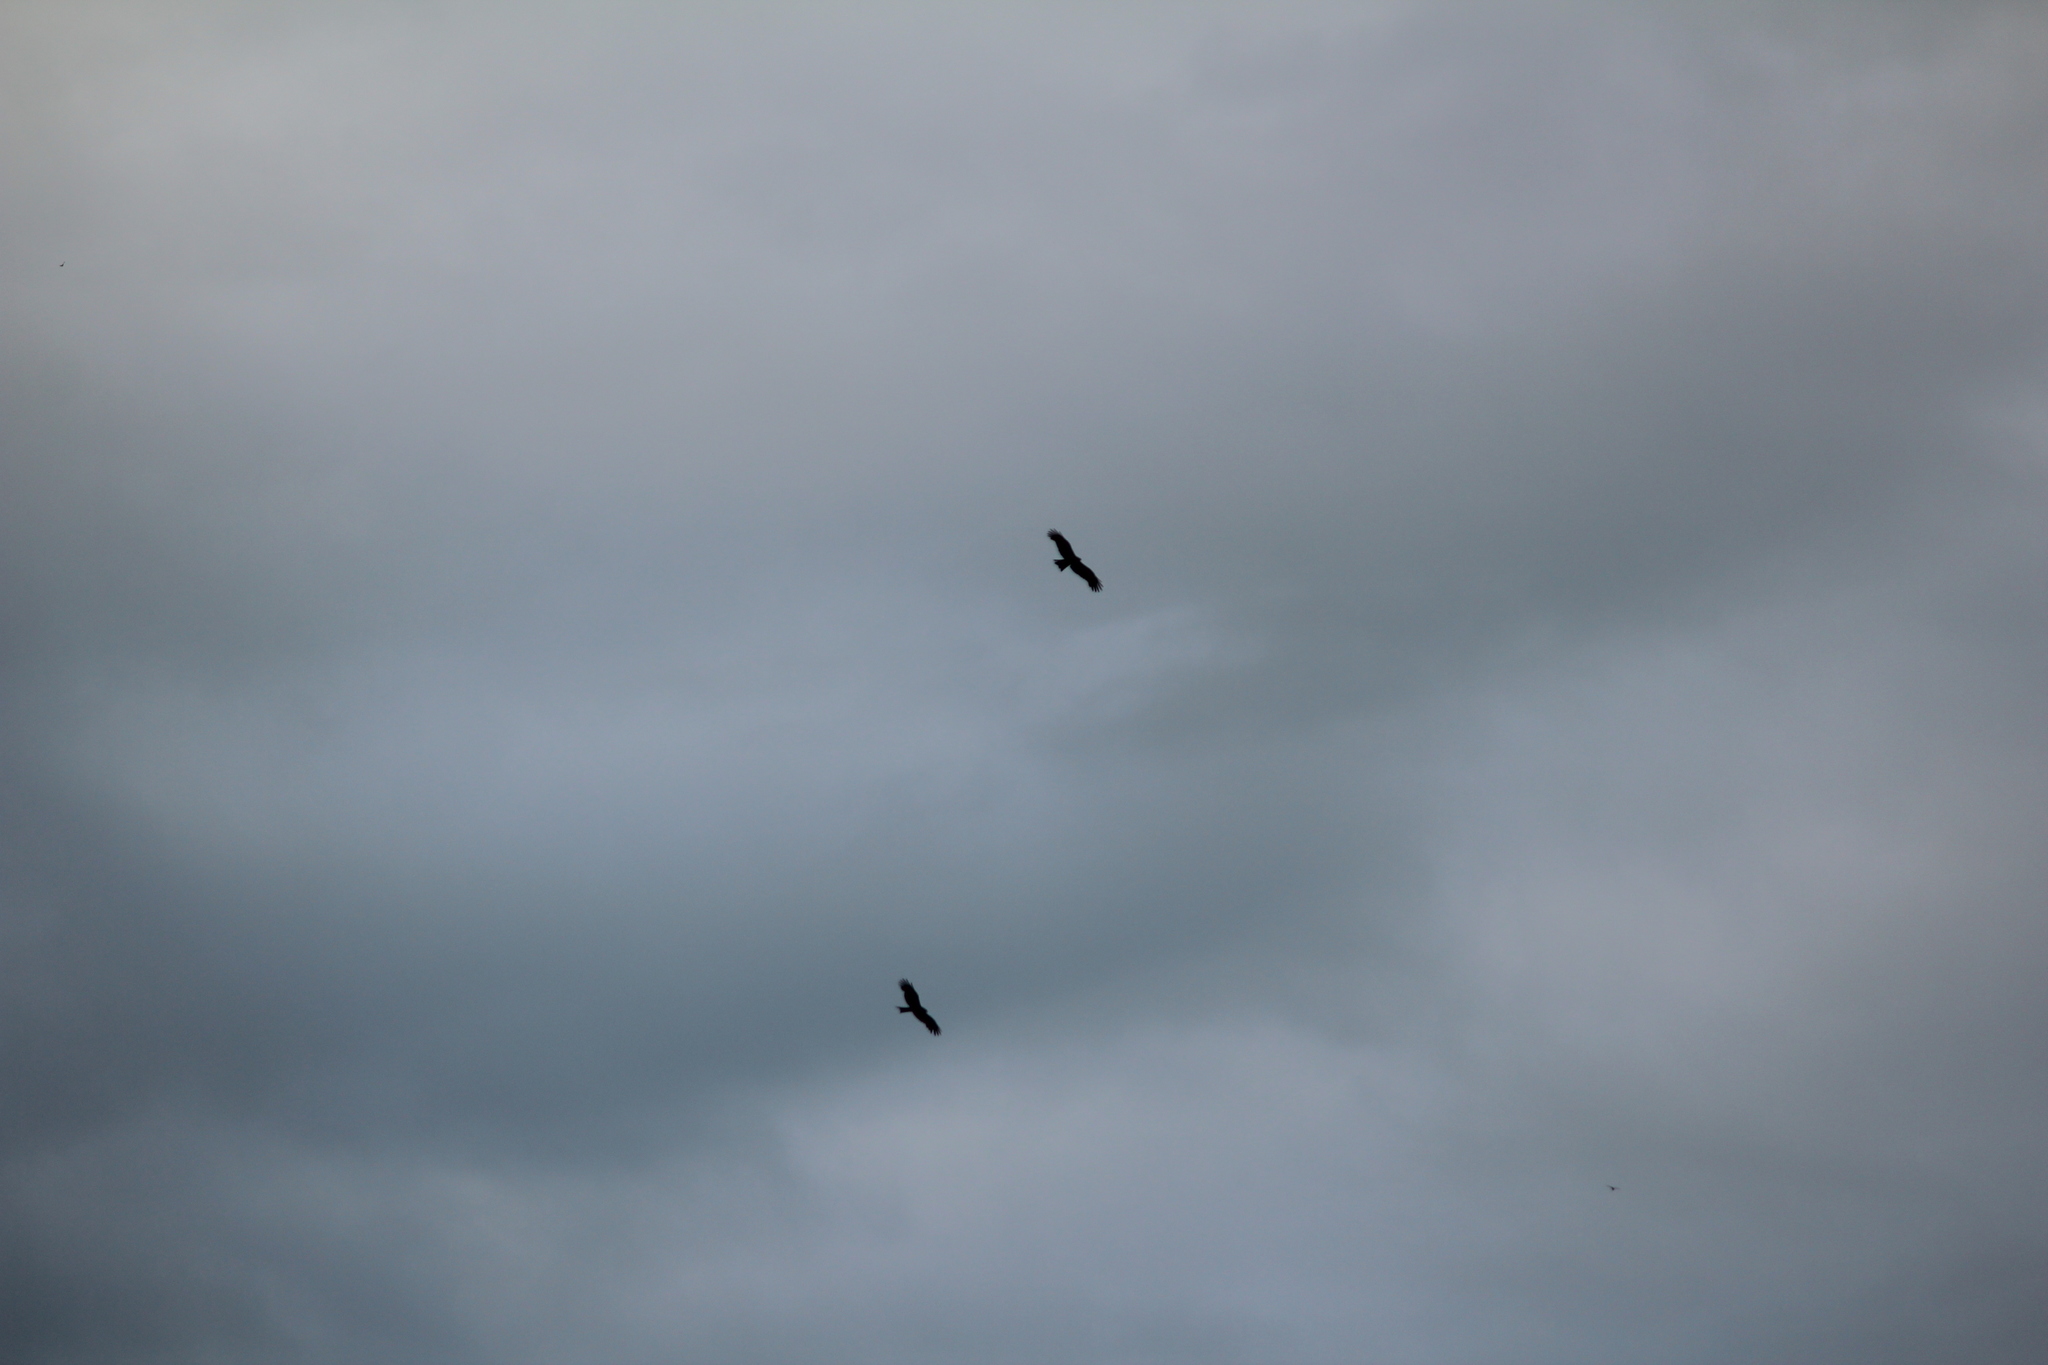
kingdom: Animalia
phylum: Chordata
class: Aves
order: Accipitriformes
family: Accipitridae
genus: Milvus
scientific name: Milvus migrans
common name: Black kite
